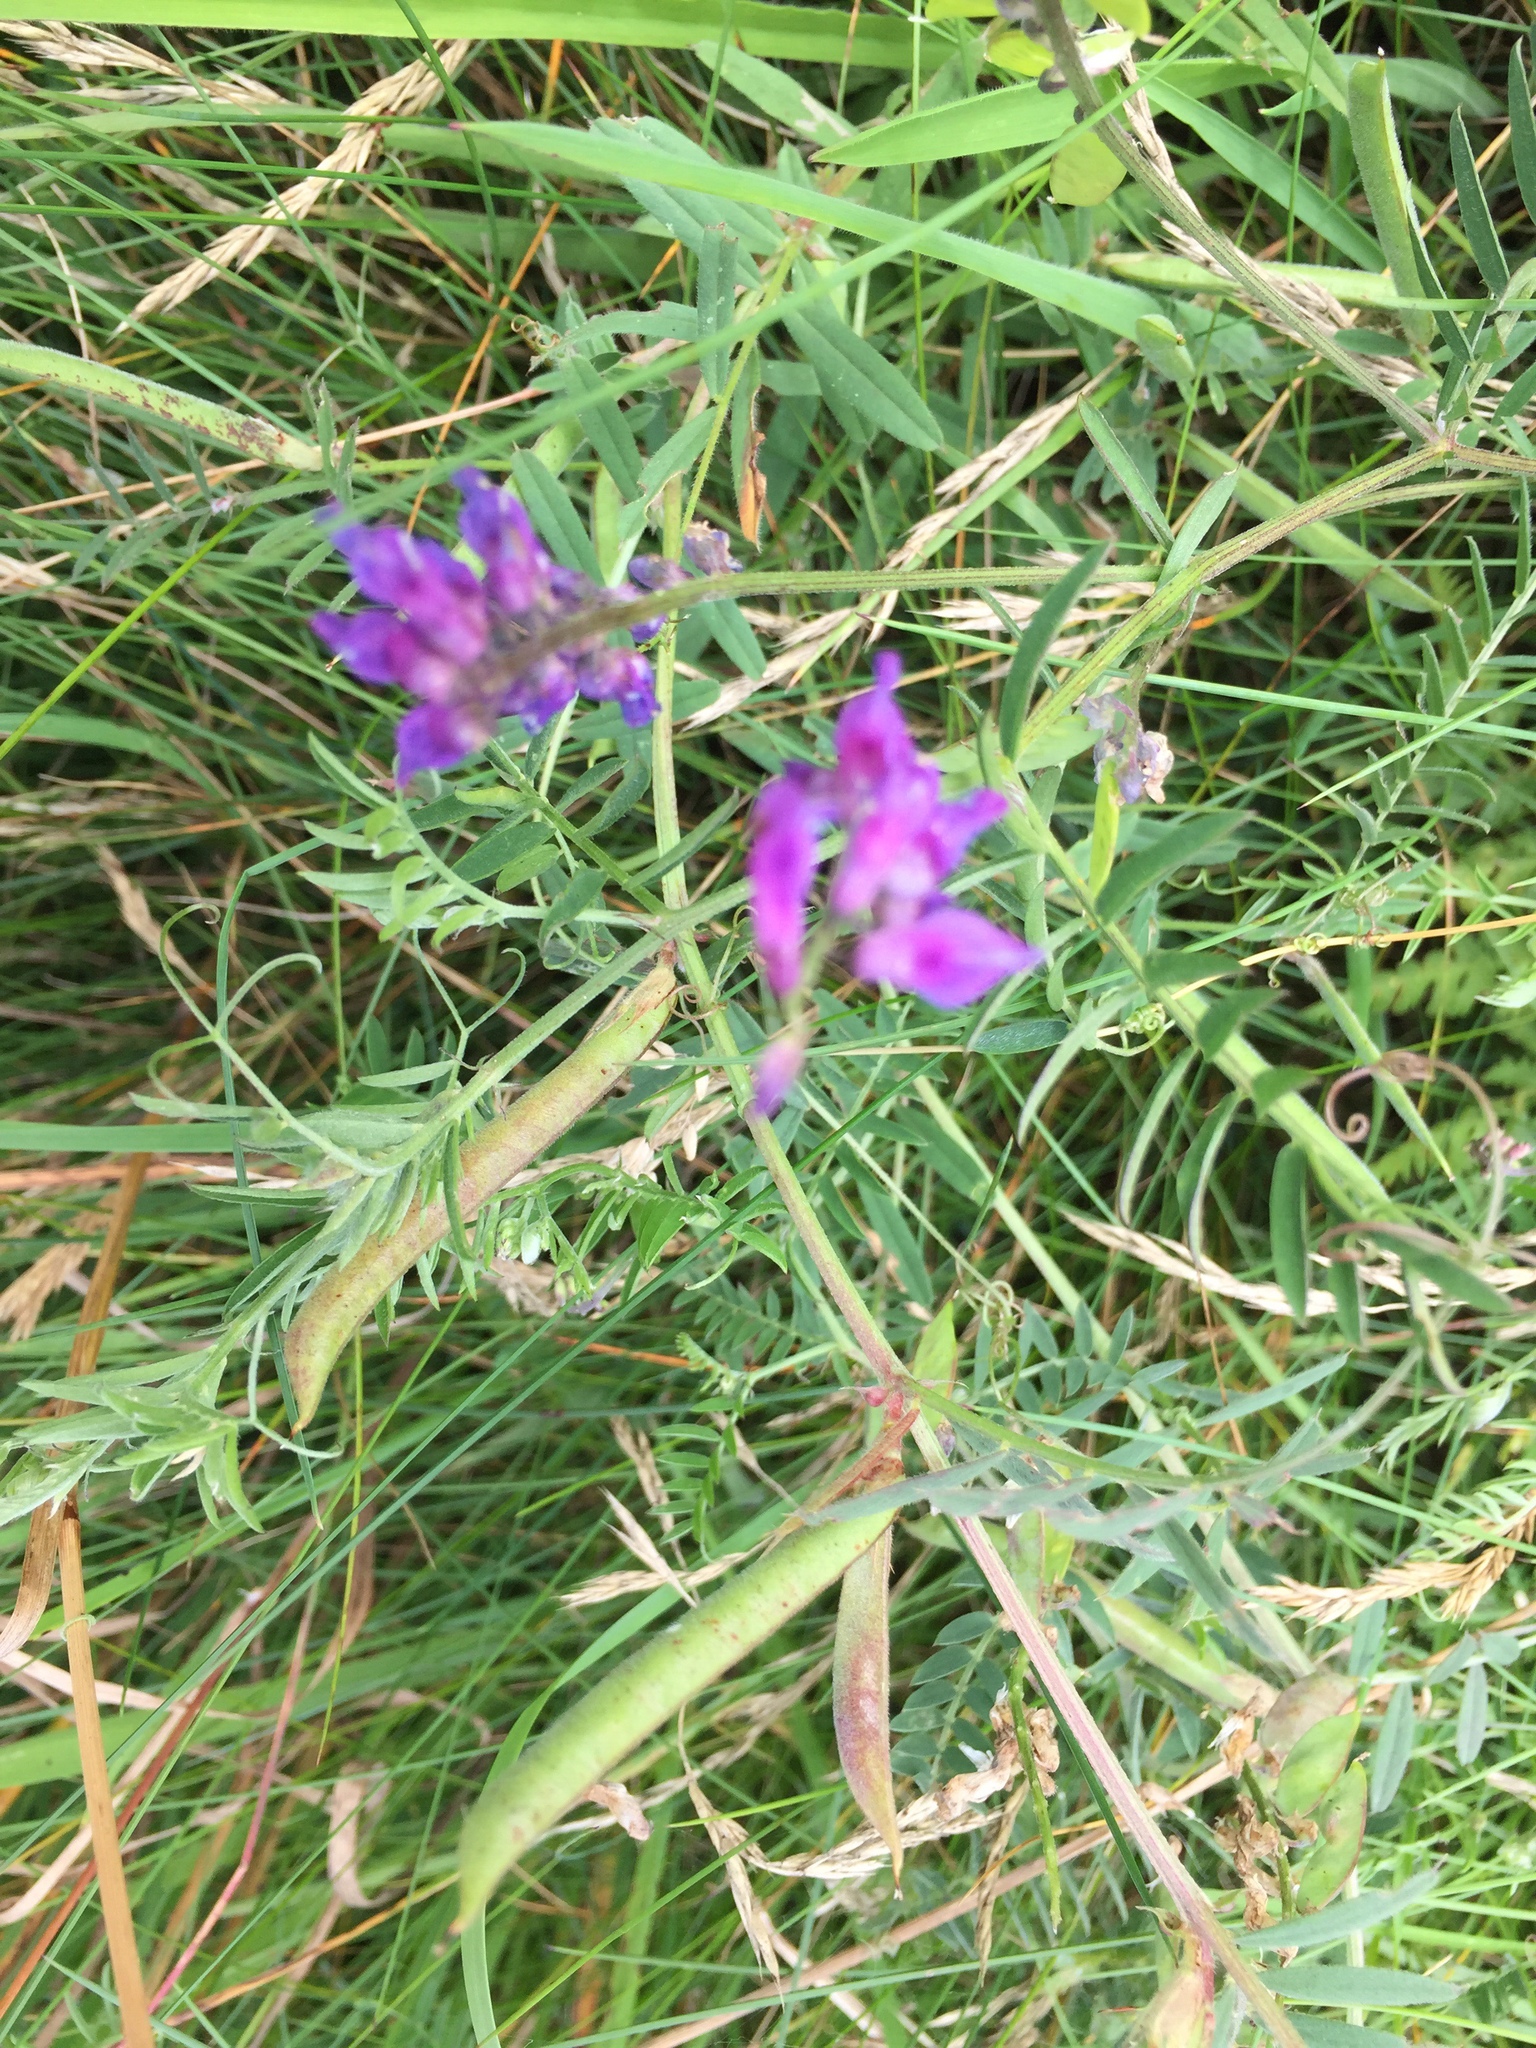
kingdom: Plantae
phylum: Tracheophyta
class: Magnoliopsida
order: Fabales
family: Fabaceae
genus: Vicia
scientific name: Vicia cracca
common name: Bird vetch
